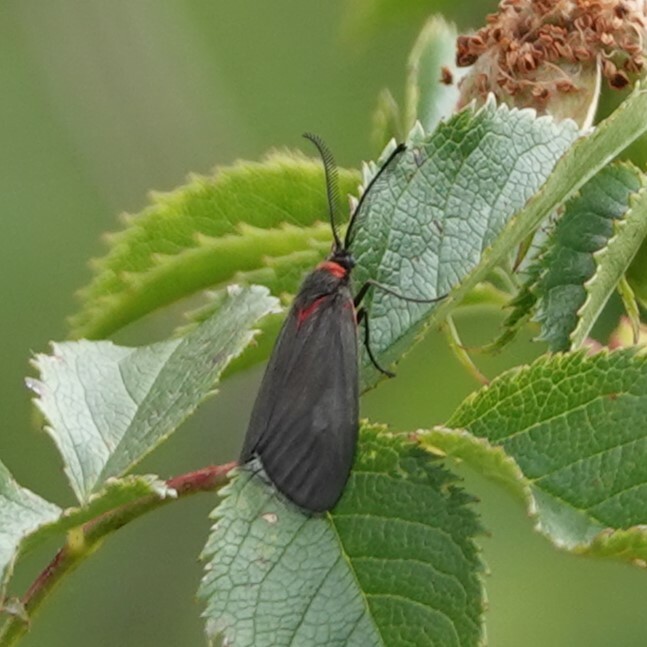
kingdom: Animalia
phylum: Arthropoda
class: Insecta
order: Lepidoptera
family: Zygaenidae
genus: Aglaope
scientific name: Aglaope infausta
